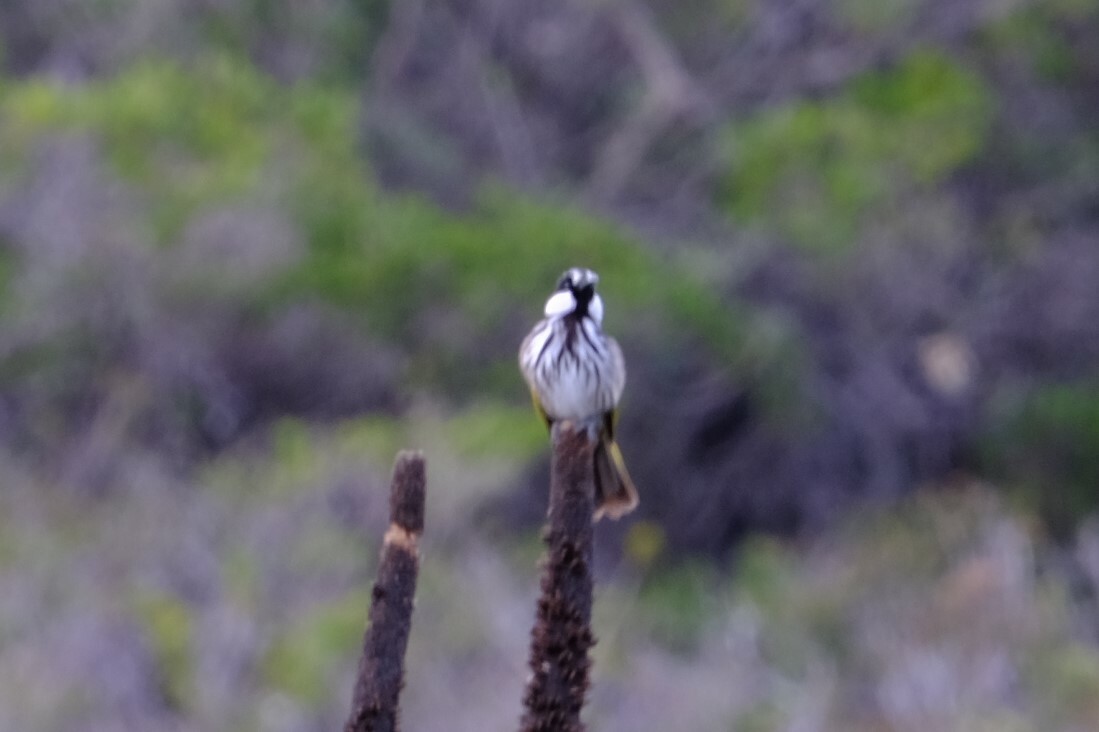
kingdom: Animalia
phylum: Chordata
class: Aves
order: Passeriformes
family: Meliphagidae
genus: Phylidonyris
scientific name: Phylidonyris niger
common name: White-cheeked honeyeater
